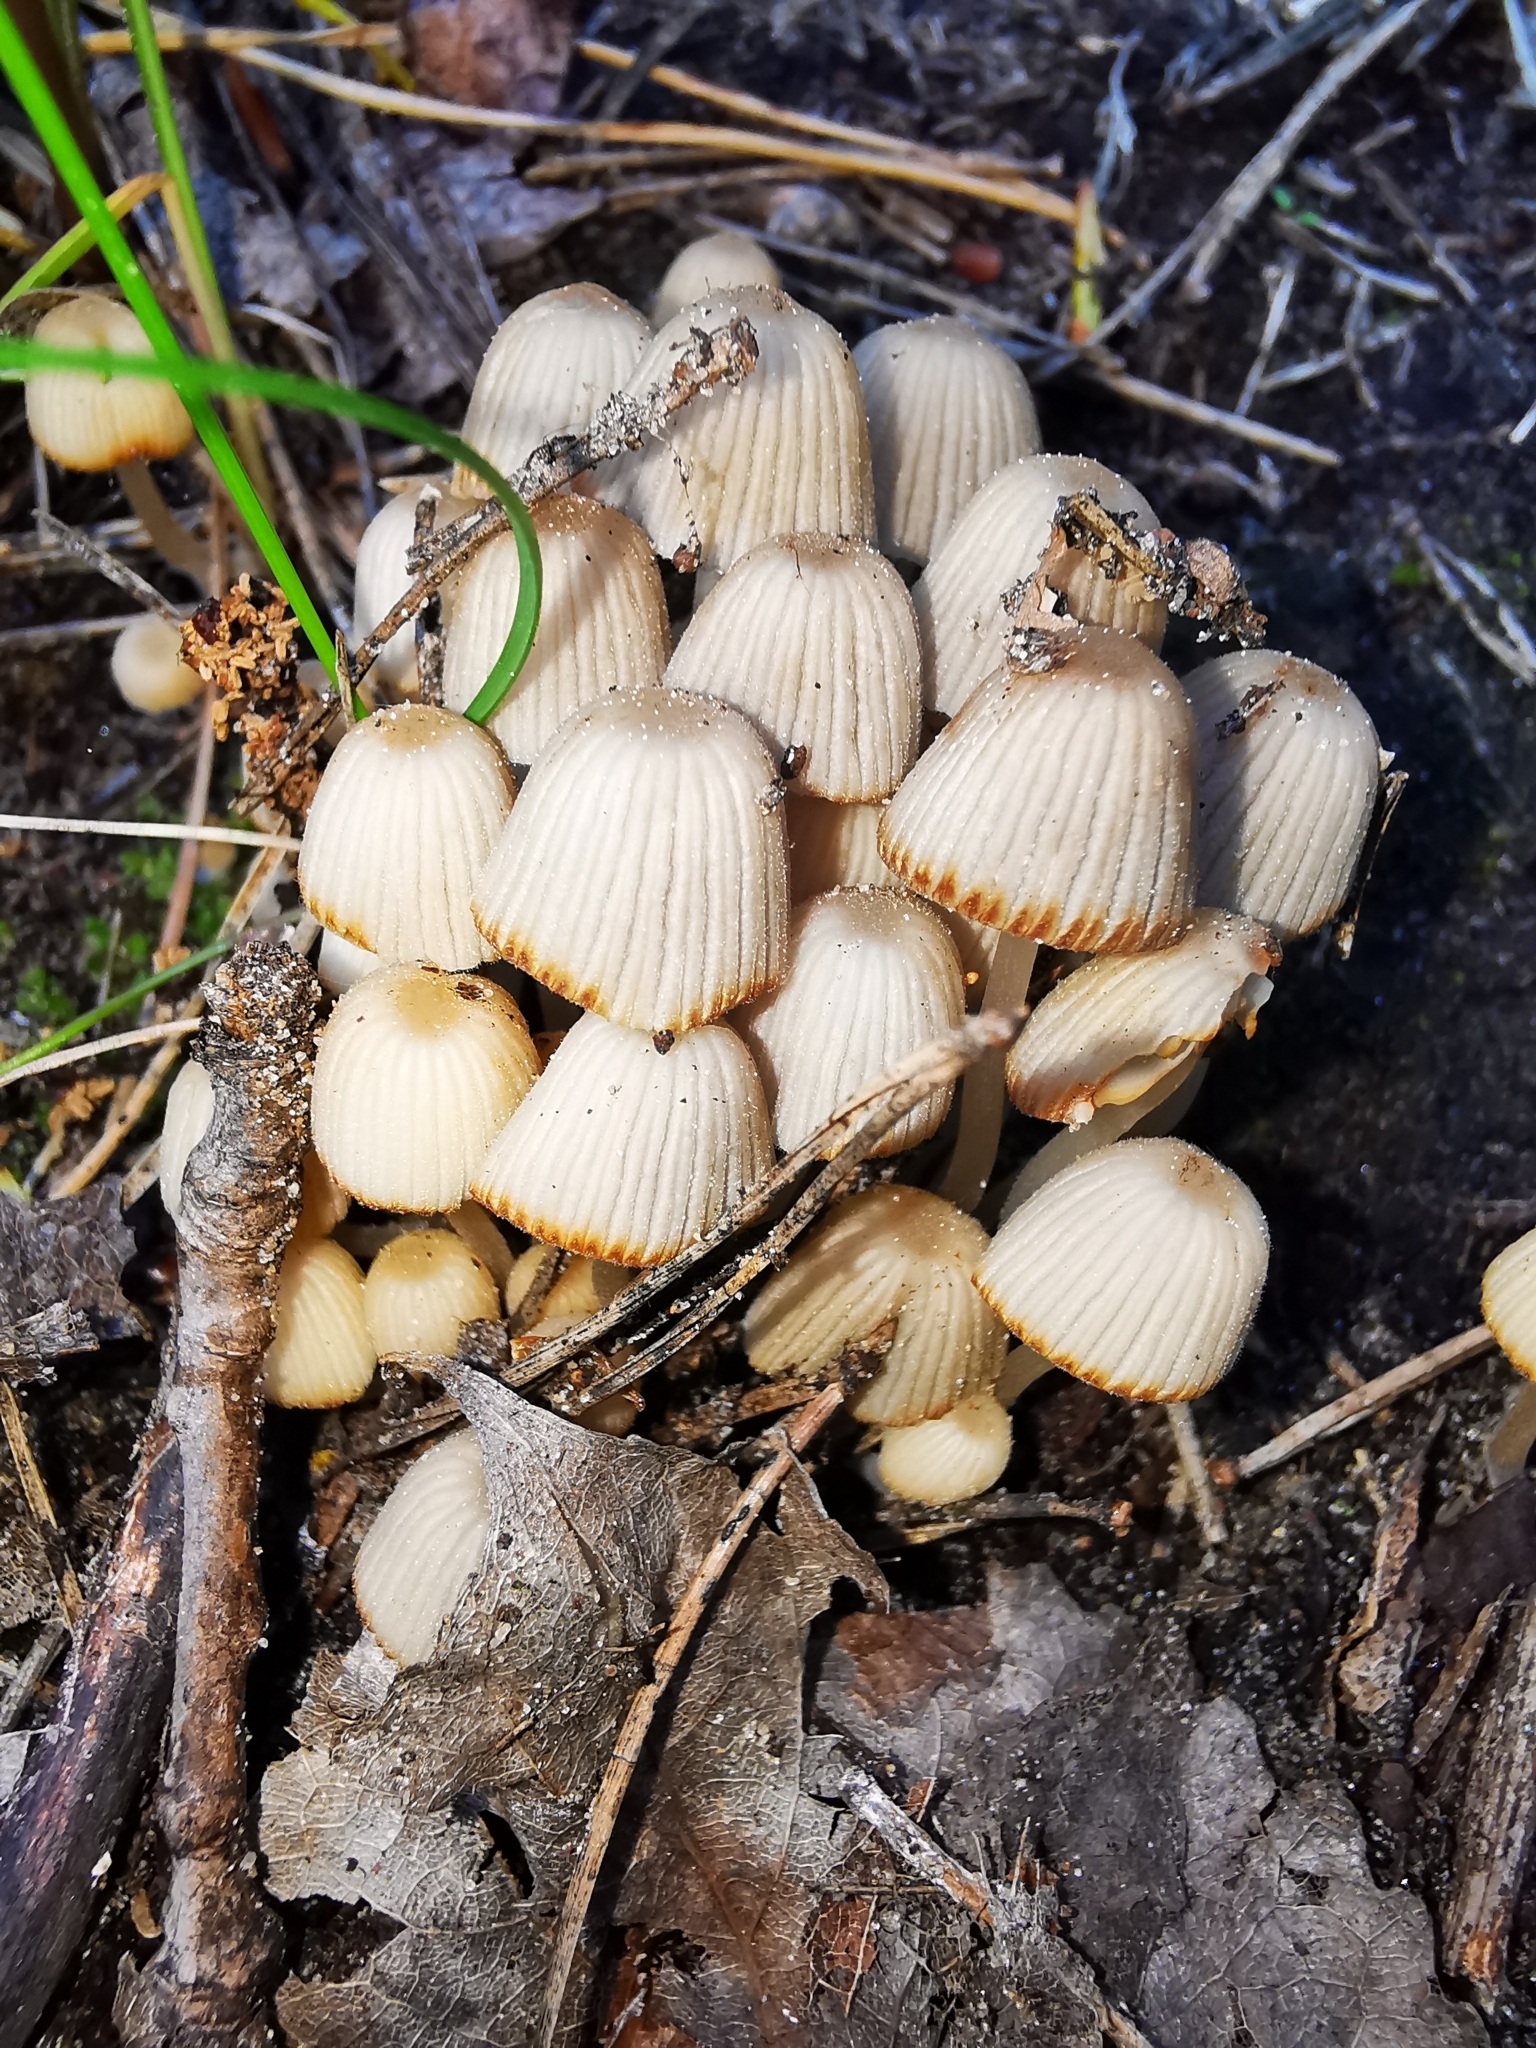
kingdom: Fungi
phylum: Basidiomycota
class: Agaricomycetes
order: Agaricales
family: Psathyrellaceae
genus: Coprinellus
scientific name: Coprinellus disseminatus
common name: Fairies' bonnets
